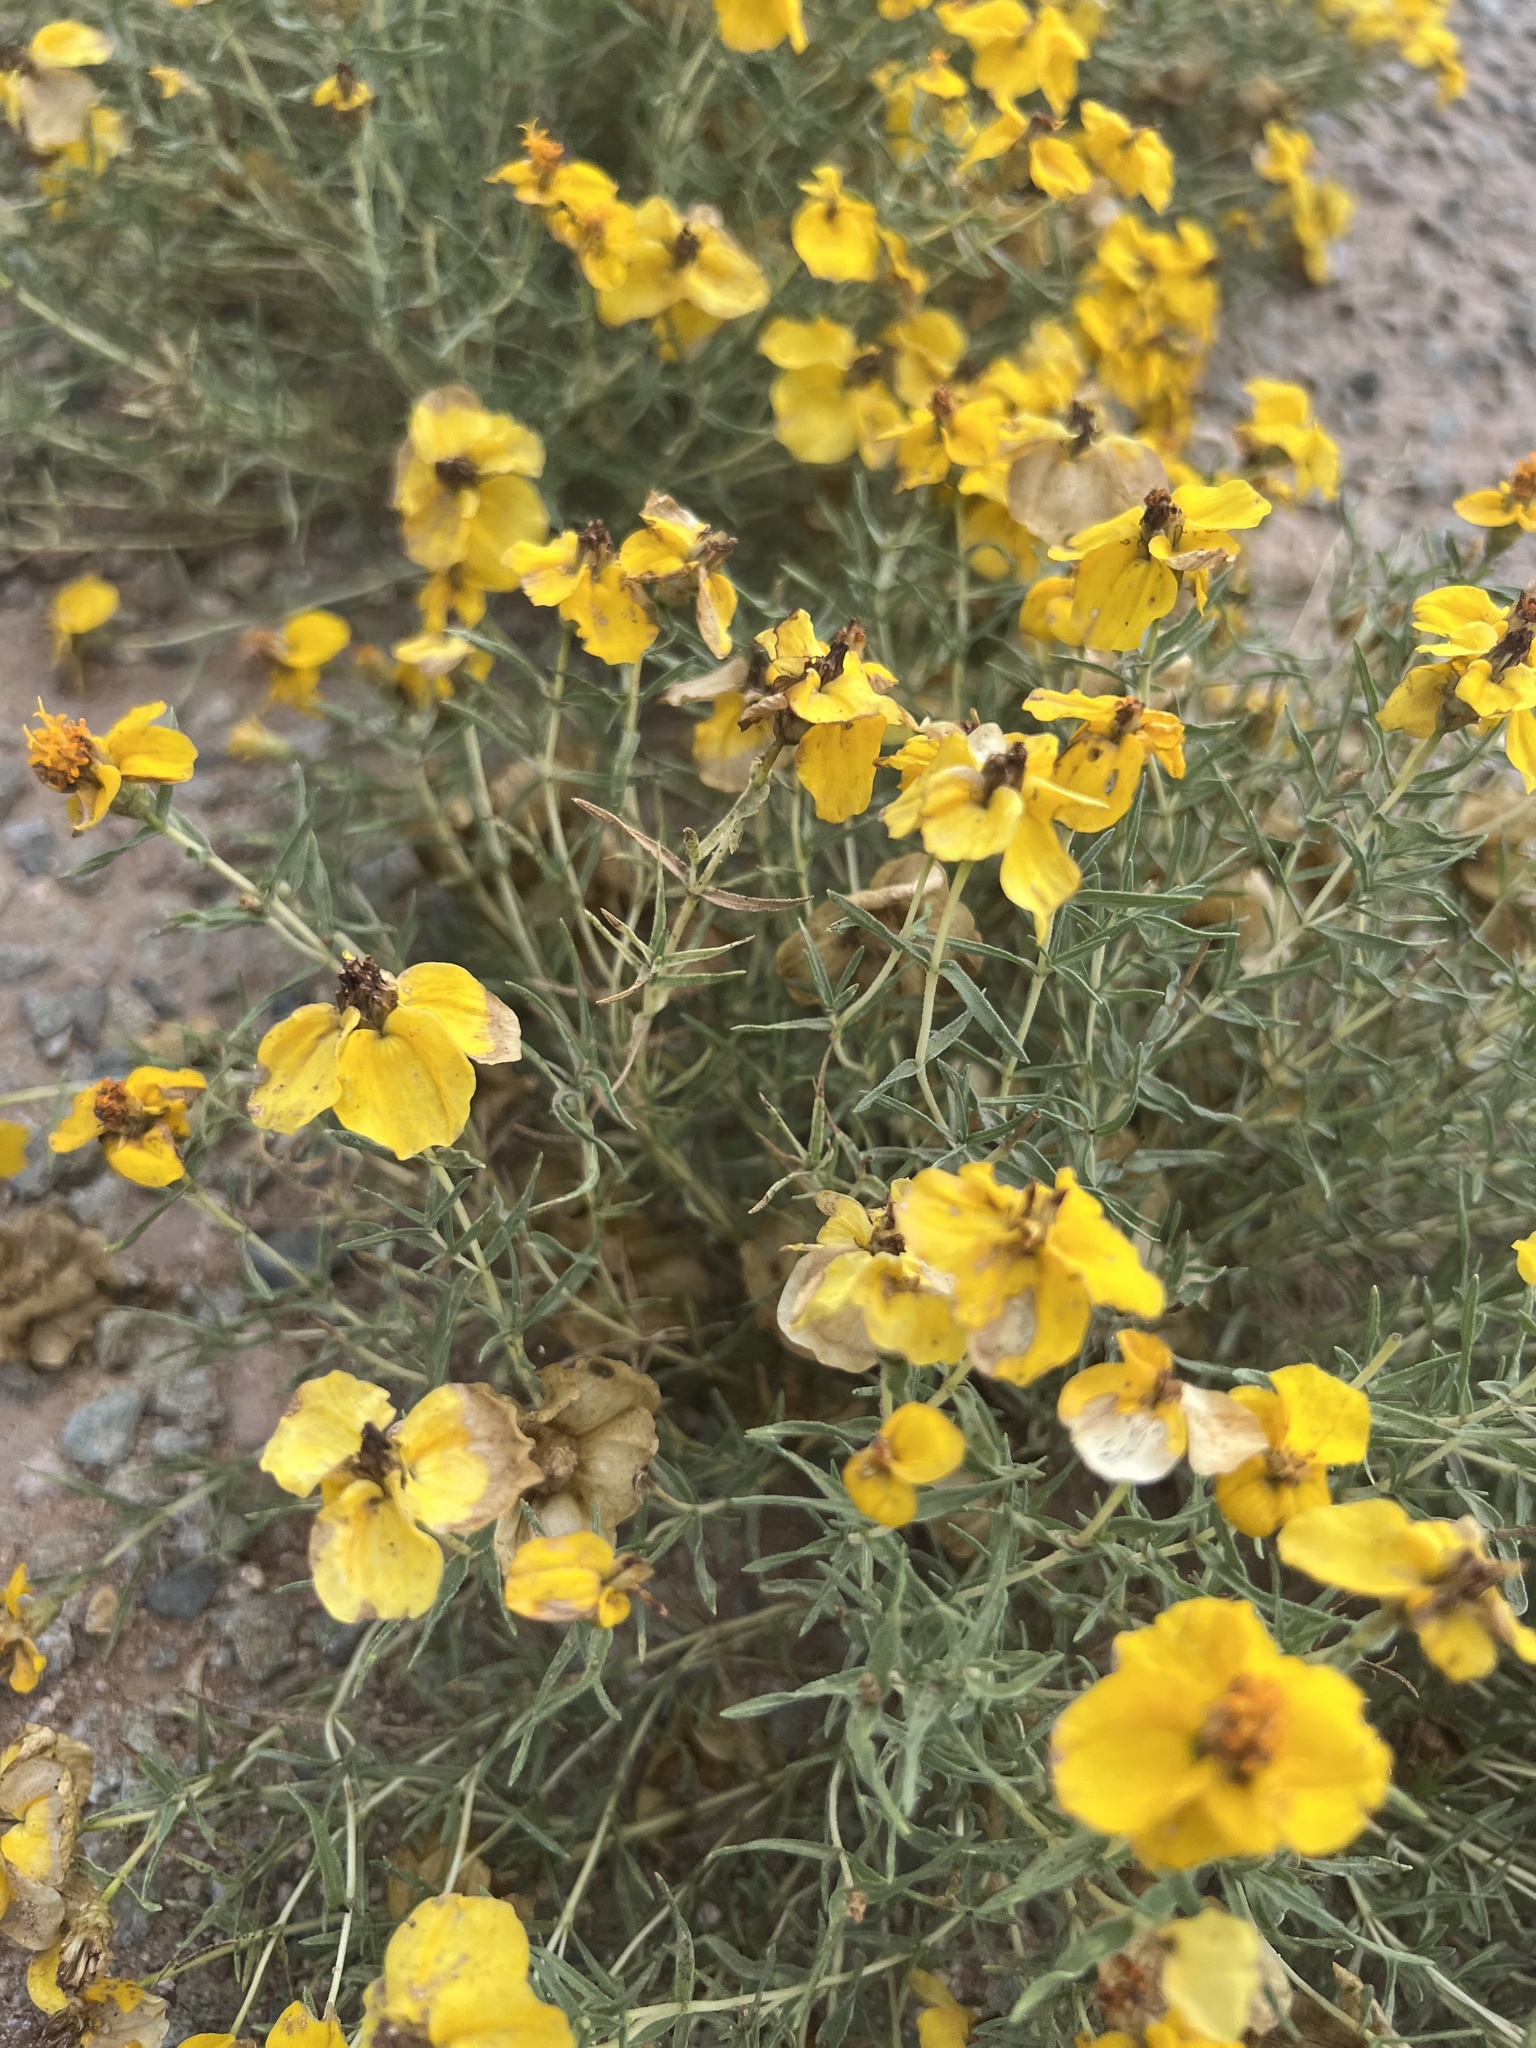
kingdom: Plantae
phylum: Tracheophyta
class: Magnoliopsida
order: Asterales
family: Asteraceae
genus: Zinnia
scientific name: Zinnia grandiflora
